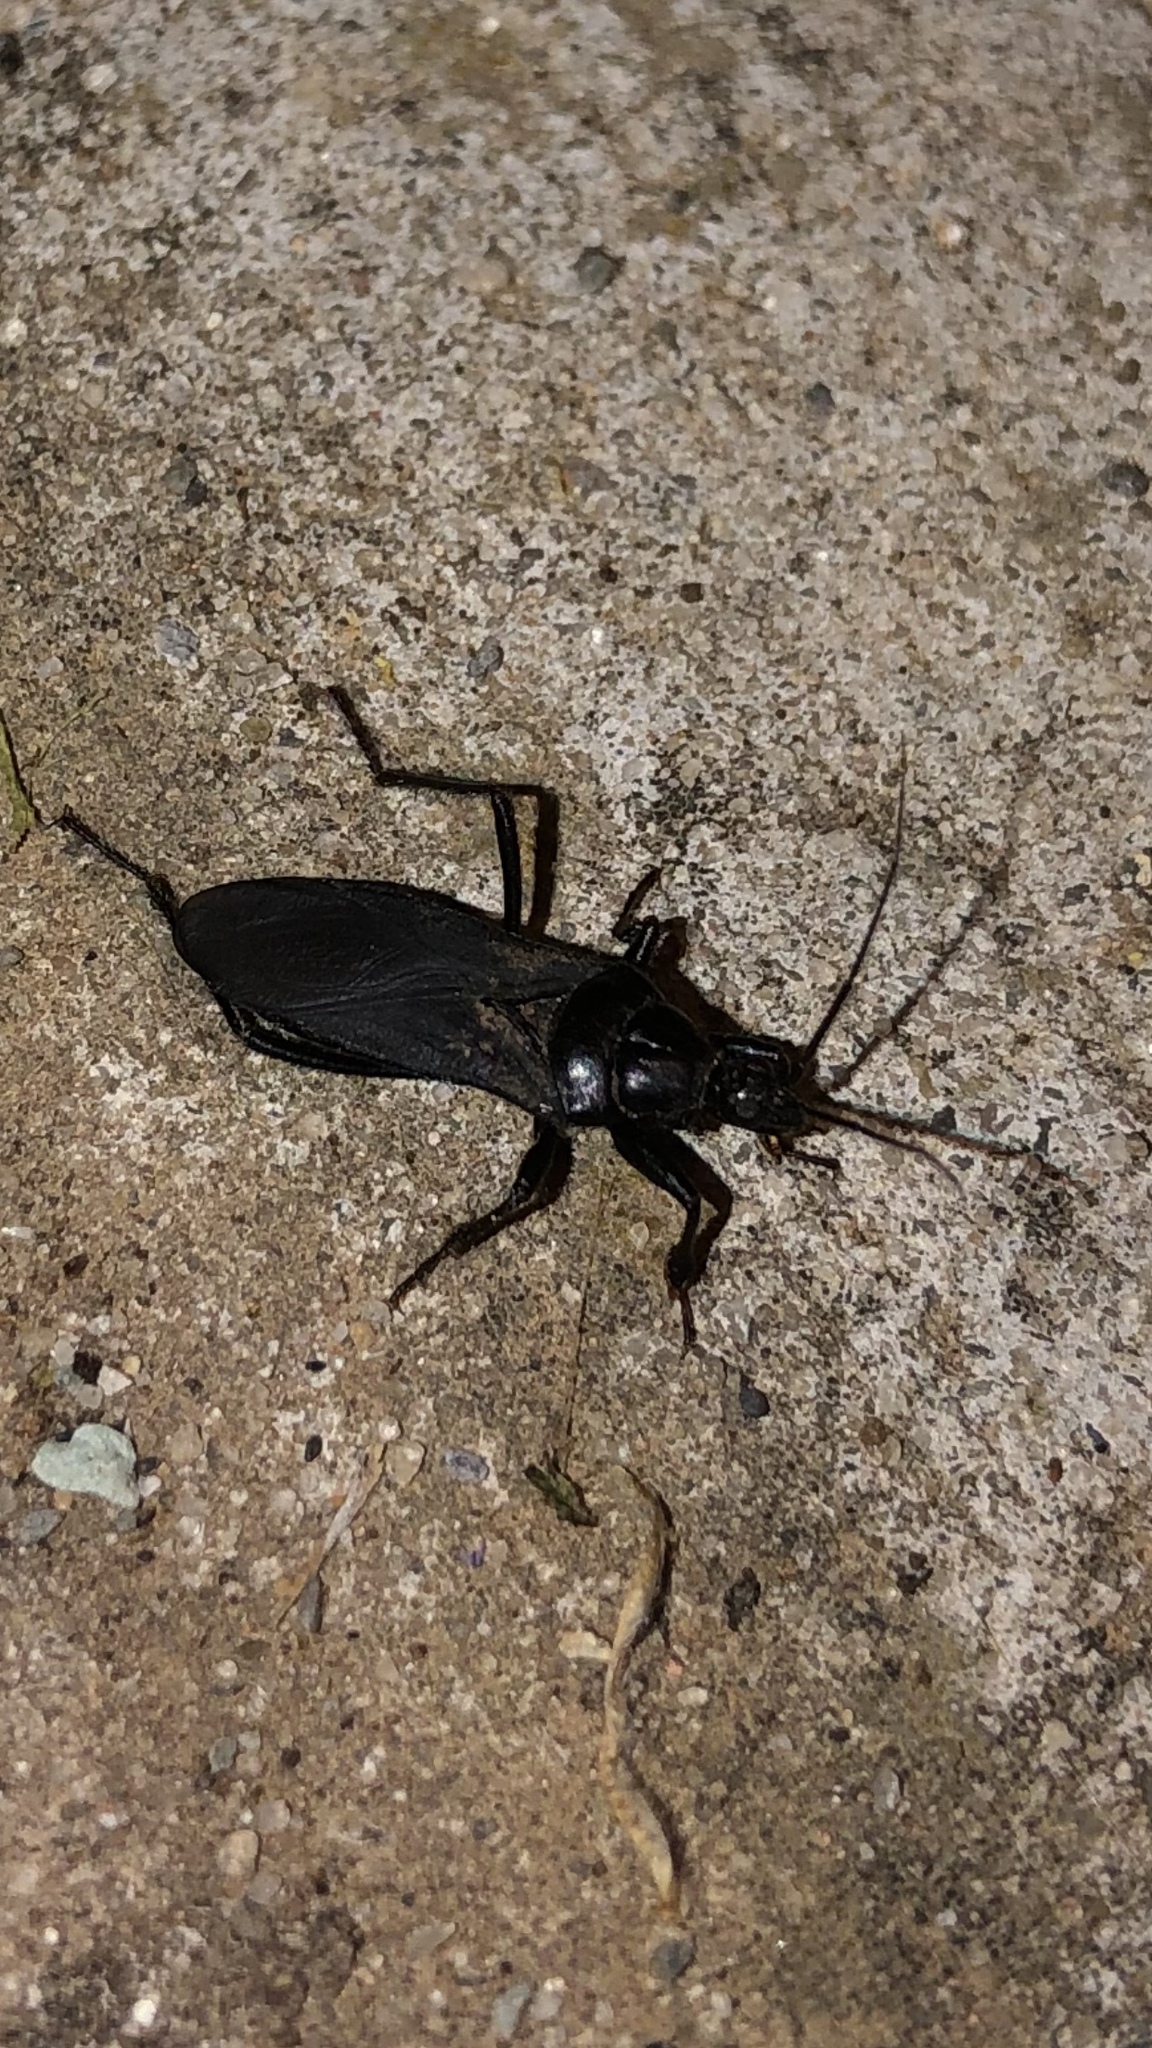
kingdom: Animalia
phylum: Arthropoda
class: Insecta
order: Hemiptera
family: Reduviidae
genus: Melanolestes
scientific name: Melanolestes picipes
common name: Assassin bug
